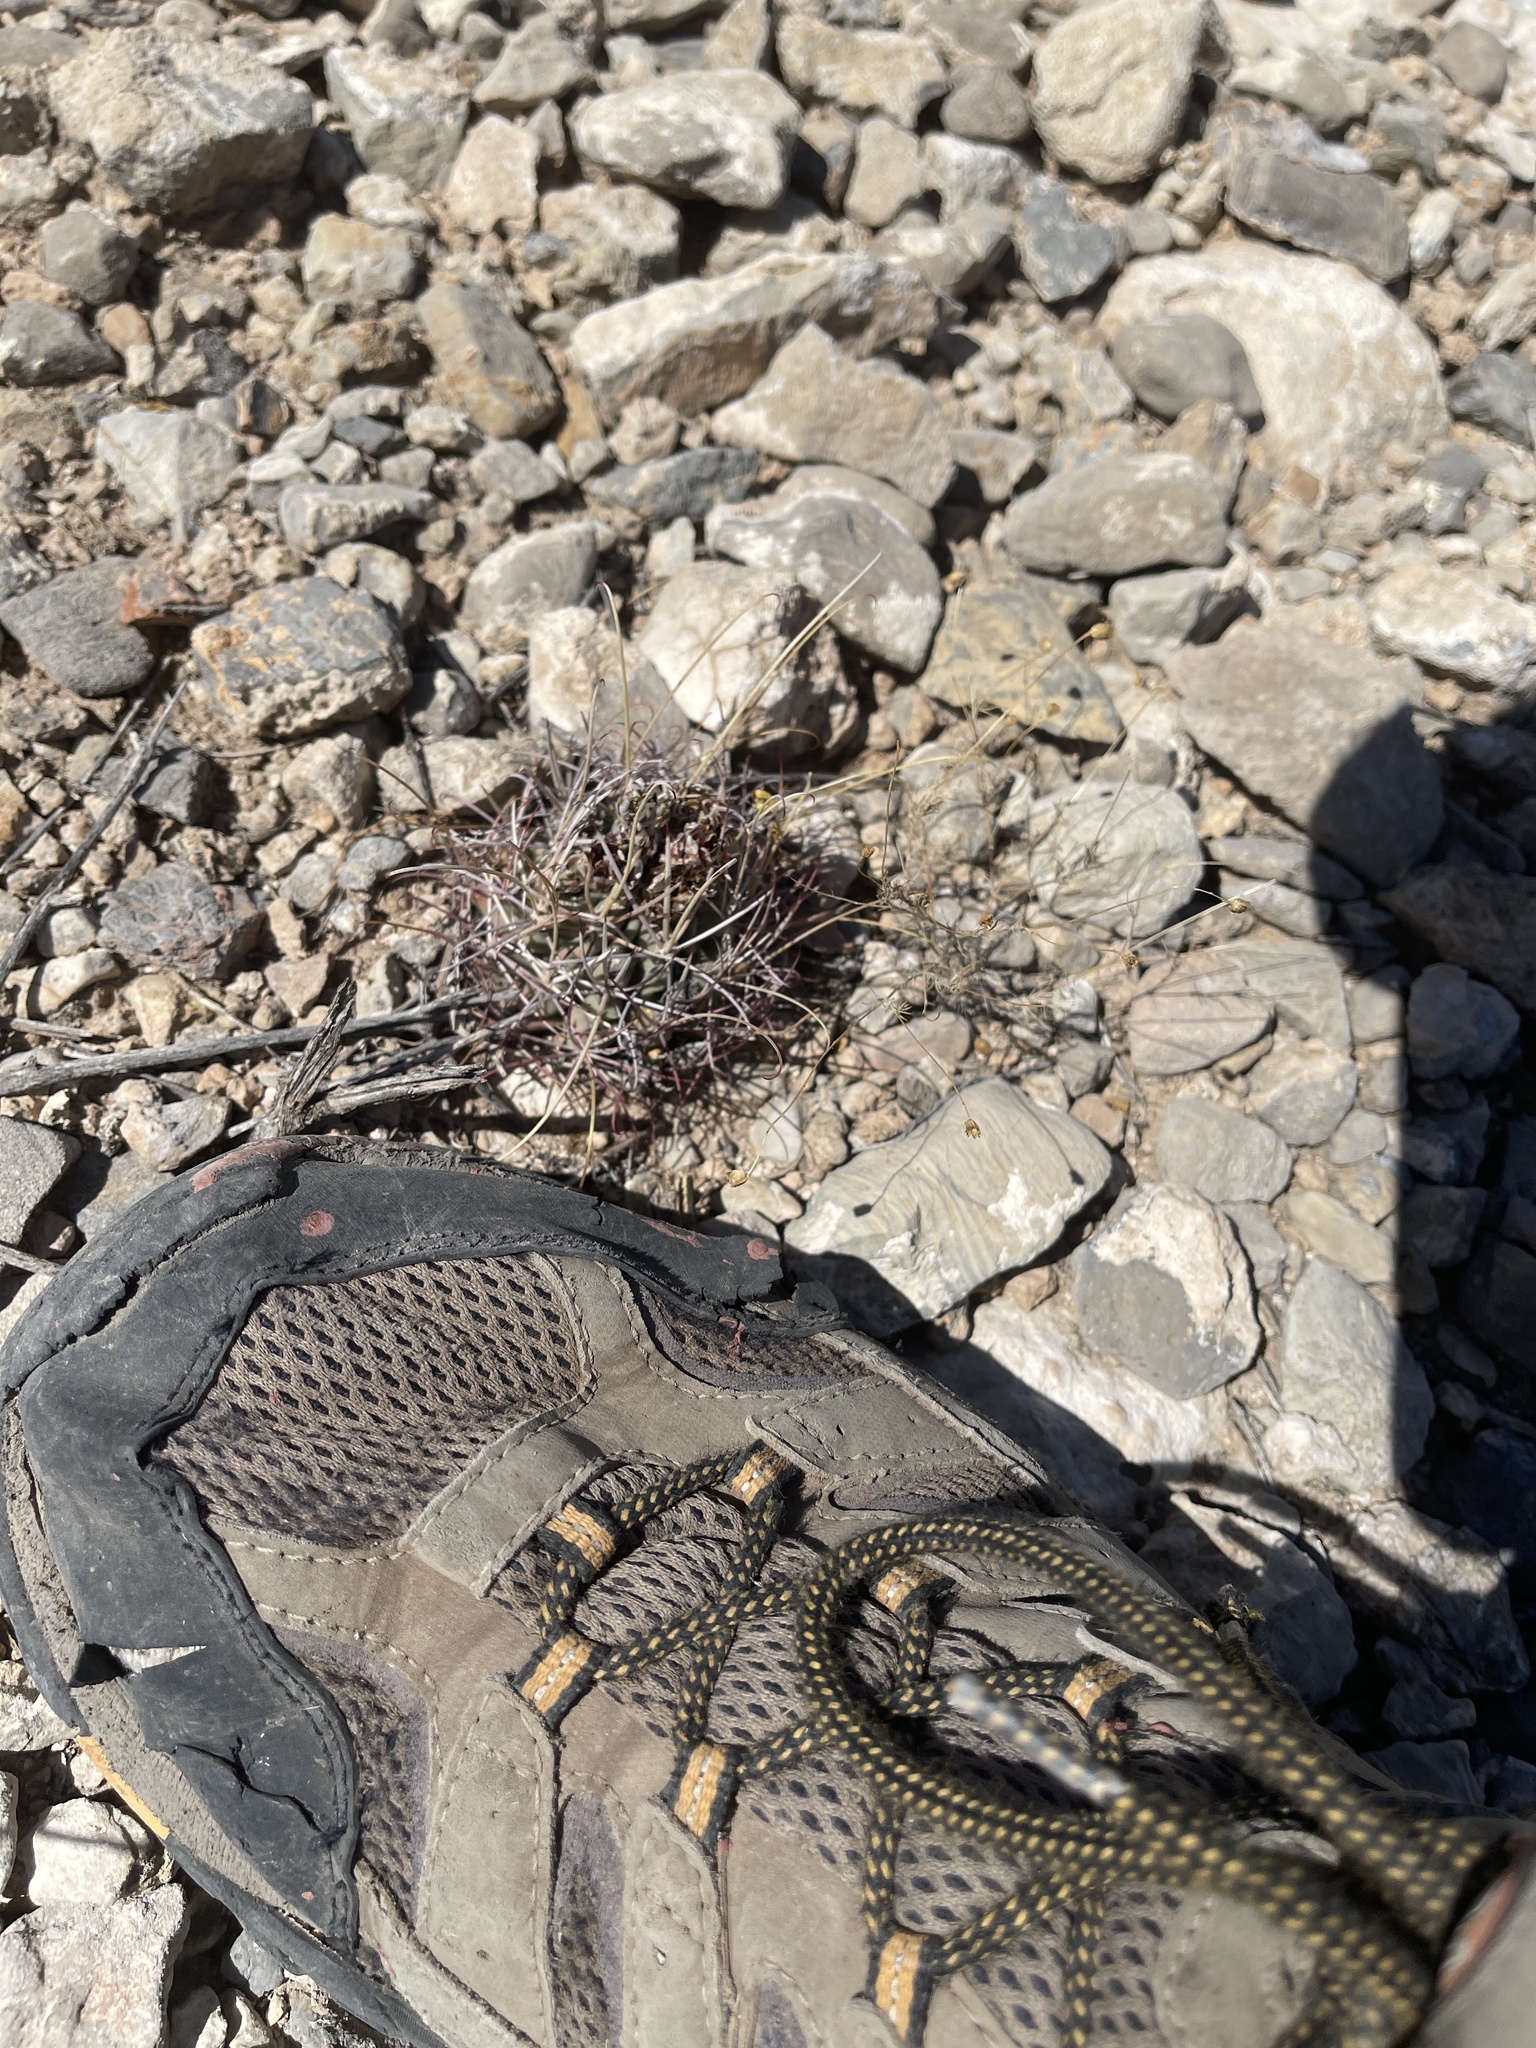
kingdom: Plantae
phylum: Tracheophyta
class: Magnoliopsida
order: Caryophyllales
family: Cactaceae
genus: Ferocactus
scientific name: Ferocactus uncinatus
